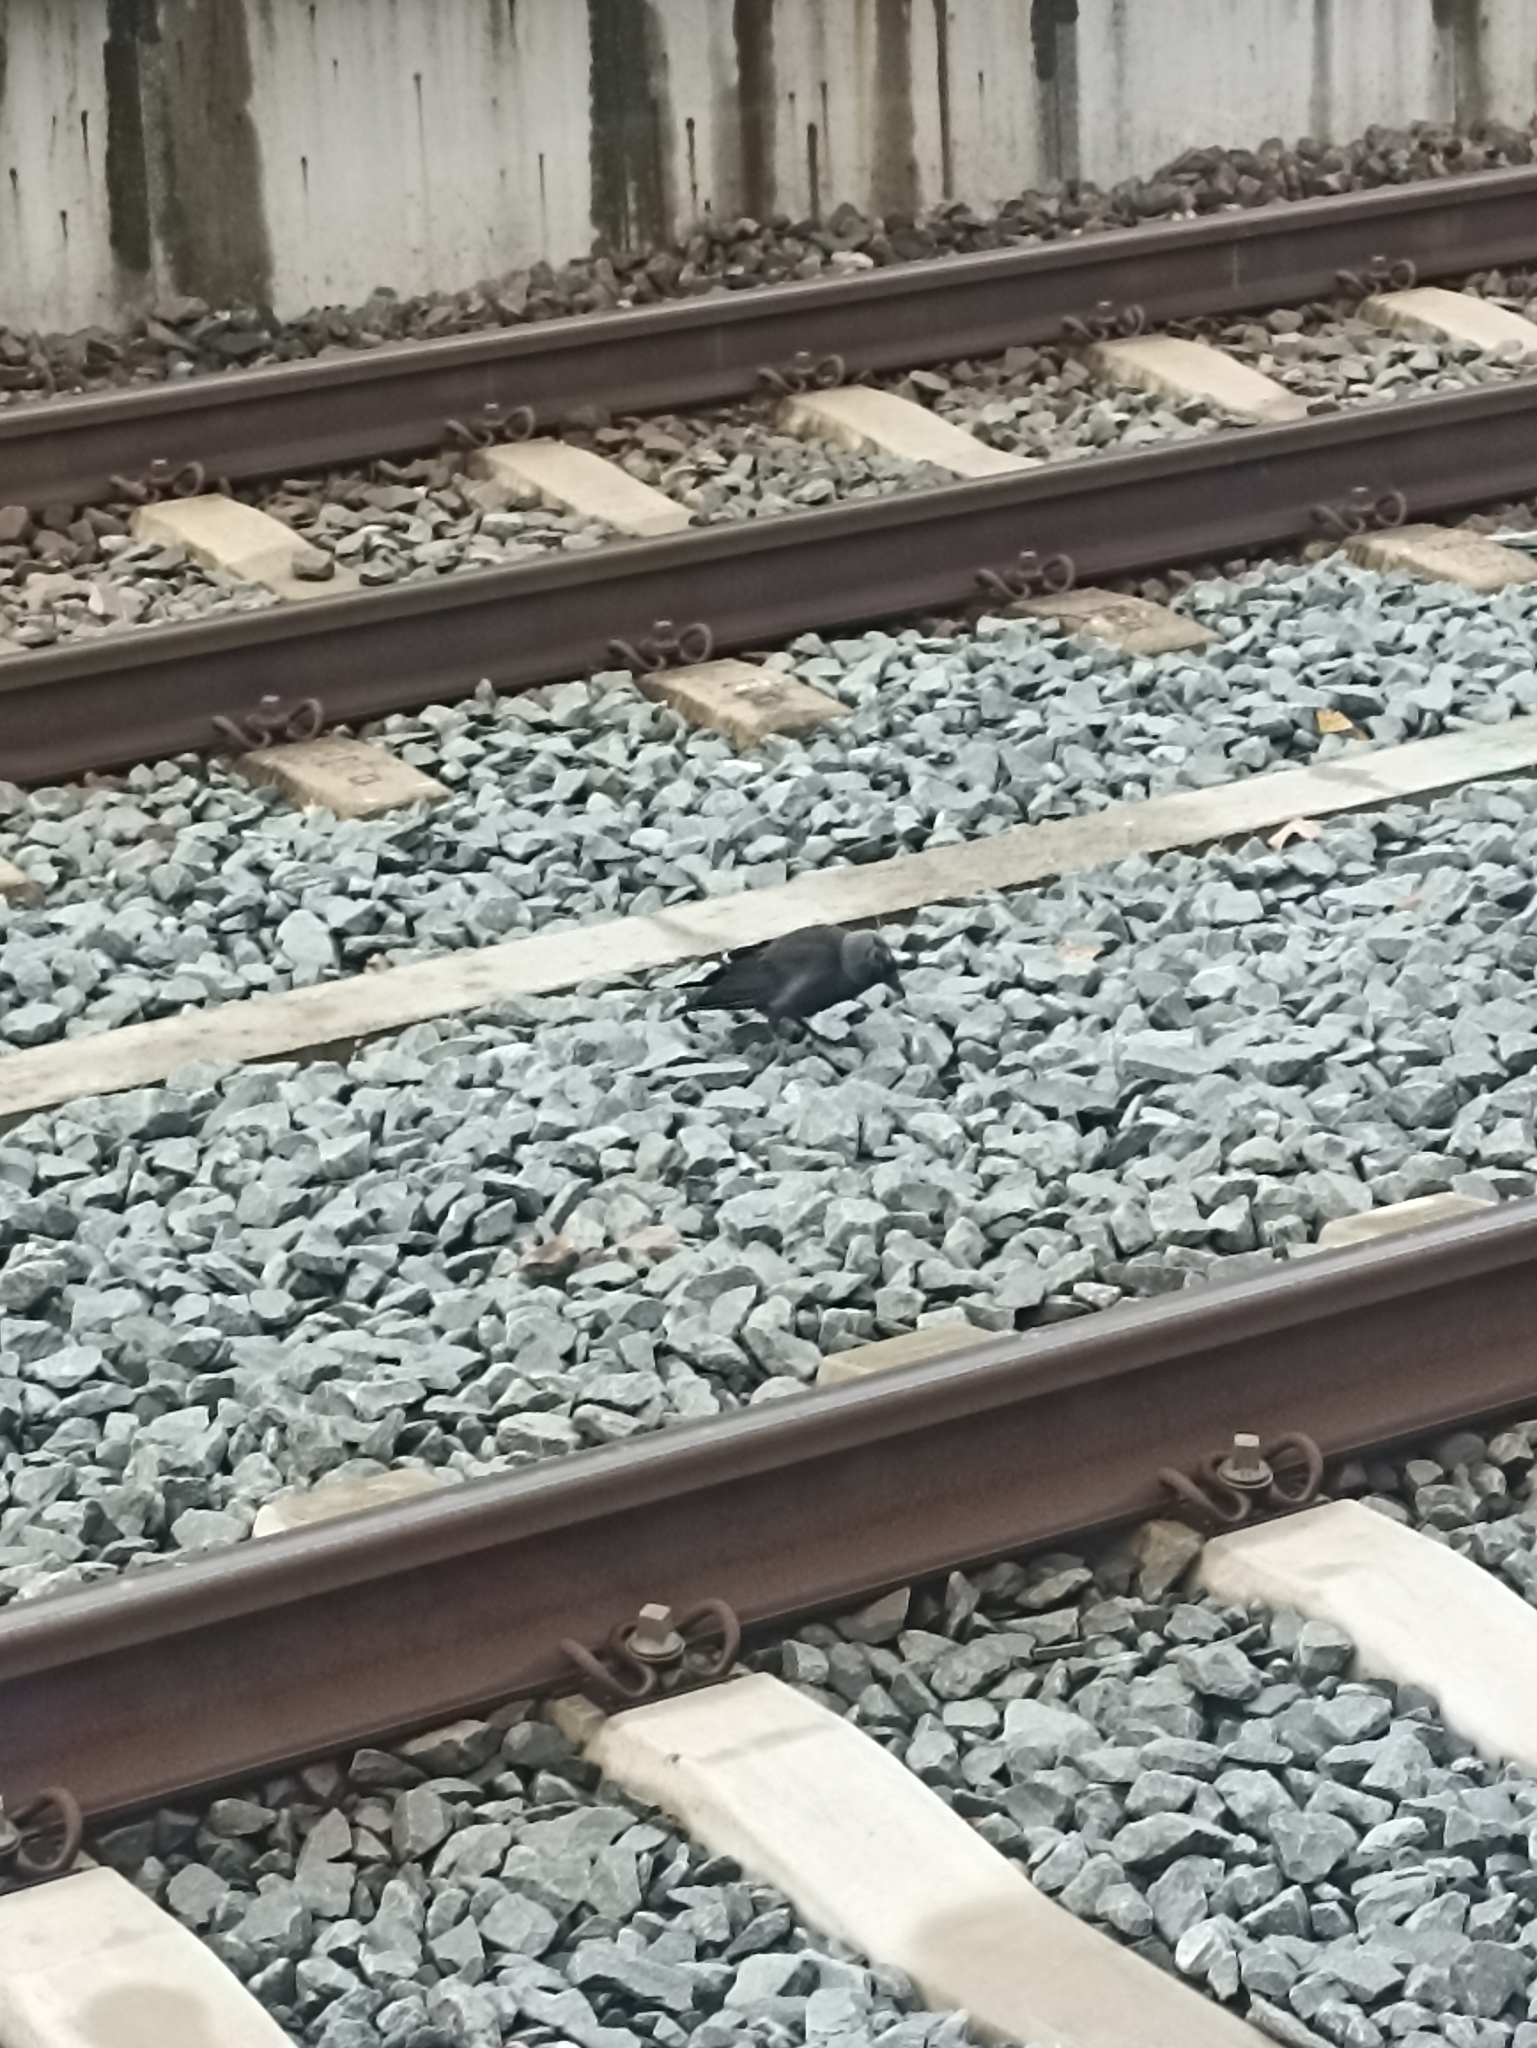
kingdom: Animalia
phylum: Chordata
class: Aves
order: Passeriformes
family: Corvidae
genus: Coloeus
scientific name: Coloeus monedula
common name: Western jackdaw
